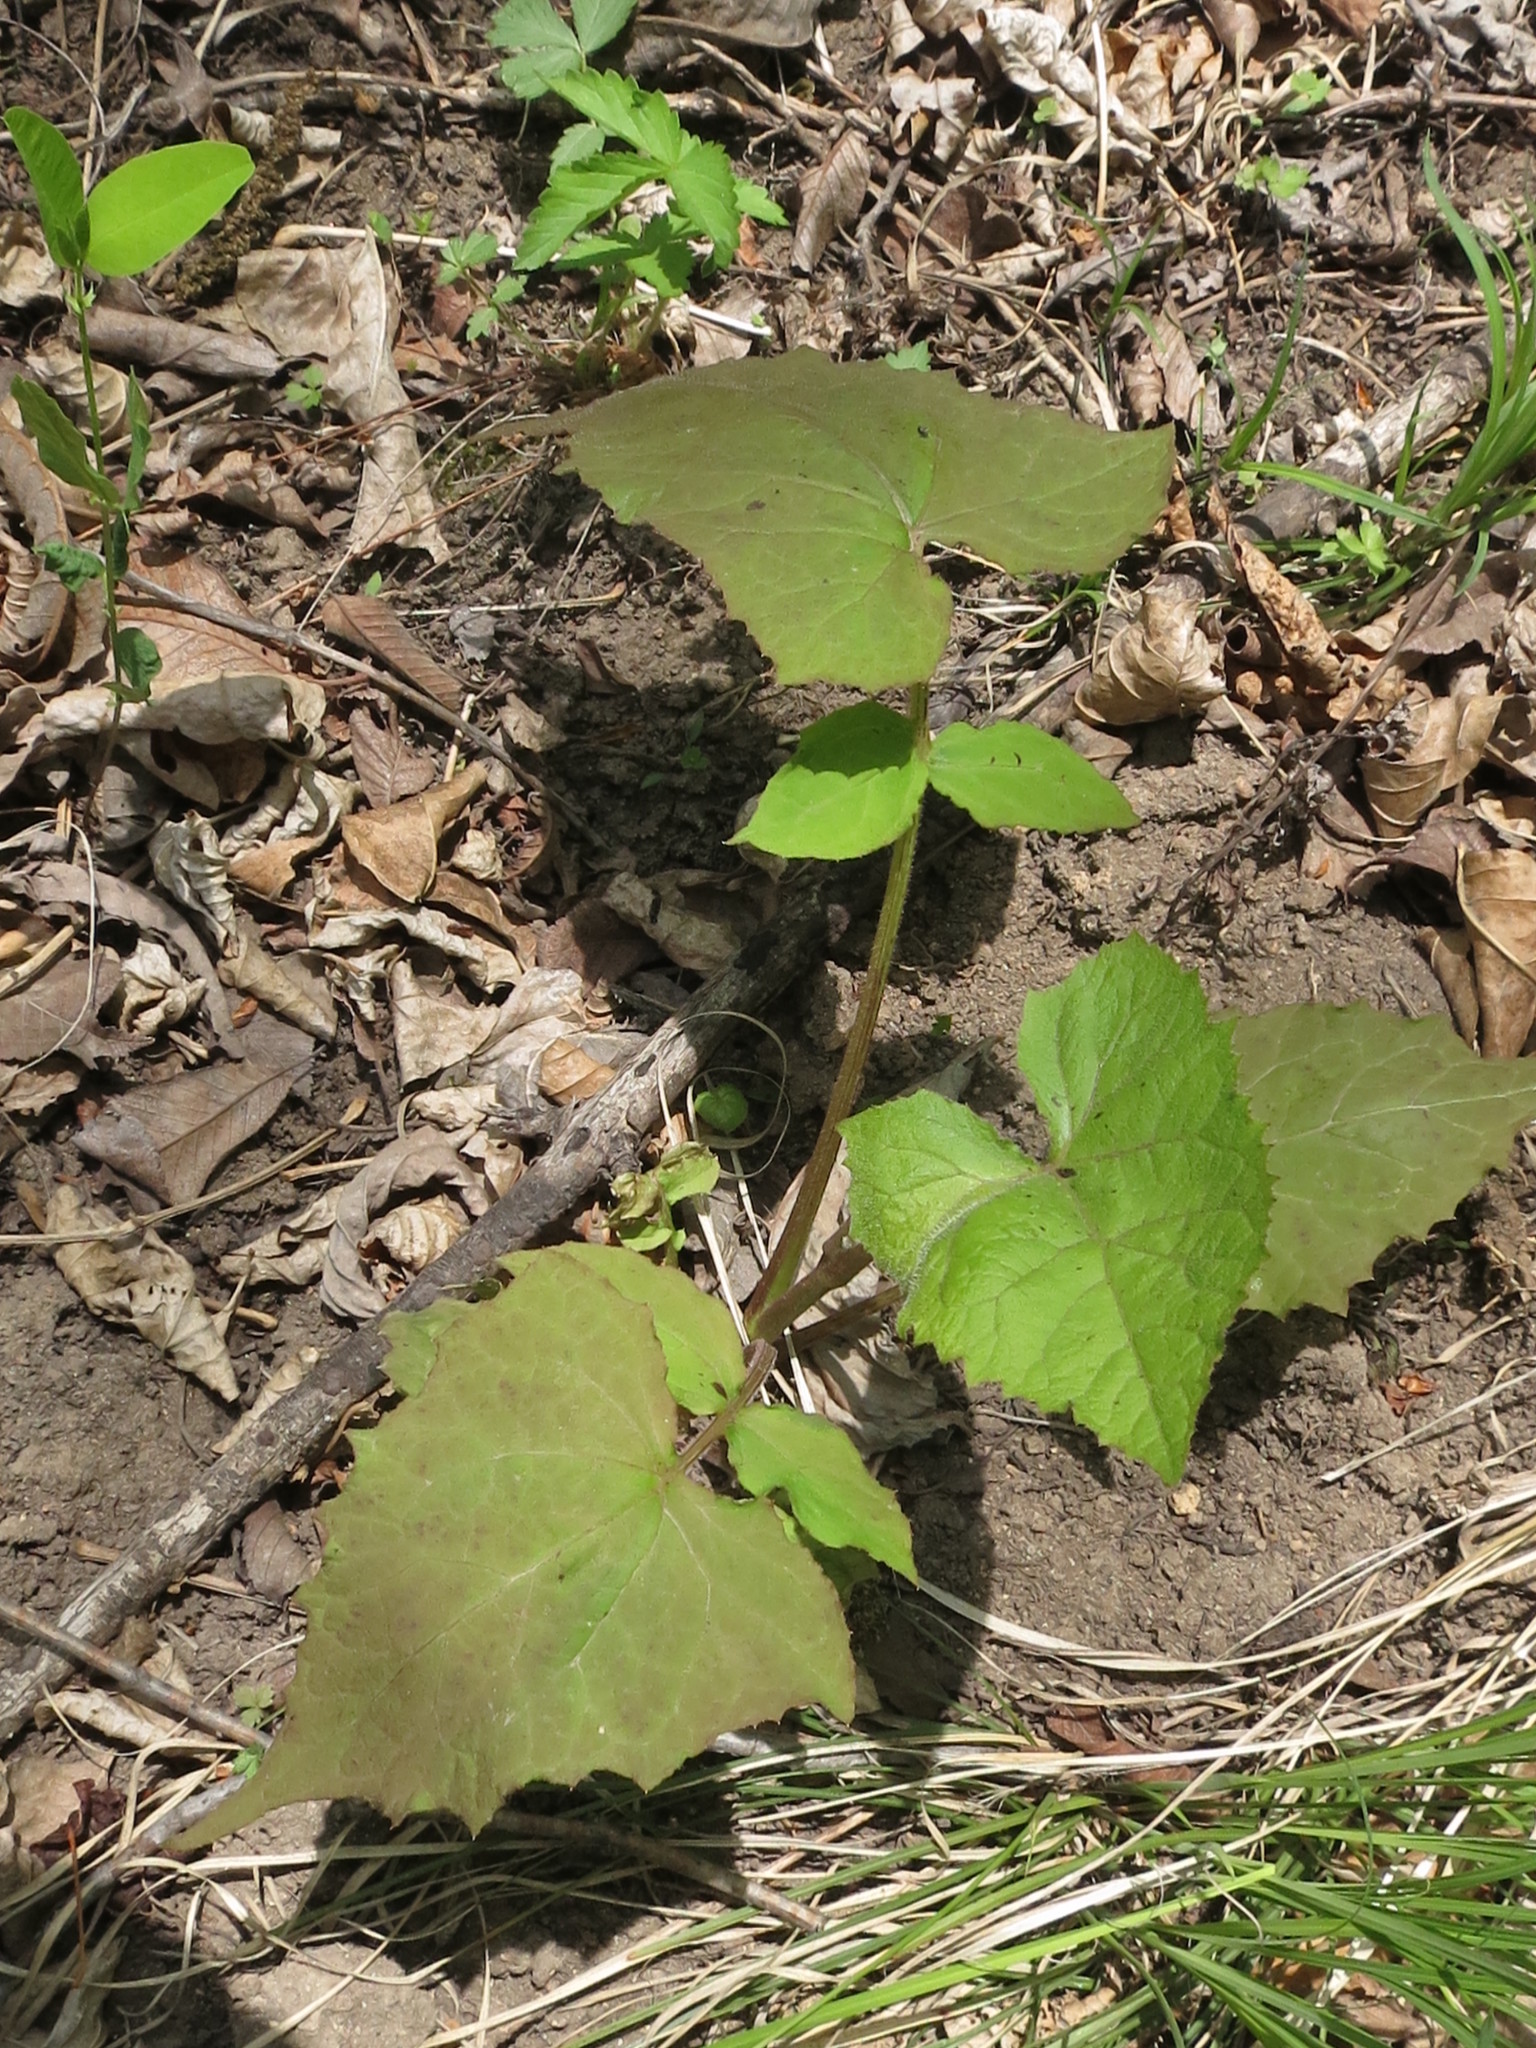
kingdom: Plantae
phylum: Tracheophyta
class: Magnoliopsida
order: Asterales
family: Asteraceae
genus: Nabalus
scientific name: Nabalus tatarinowii
